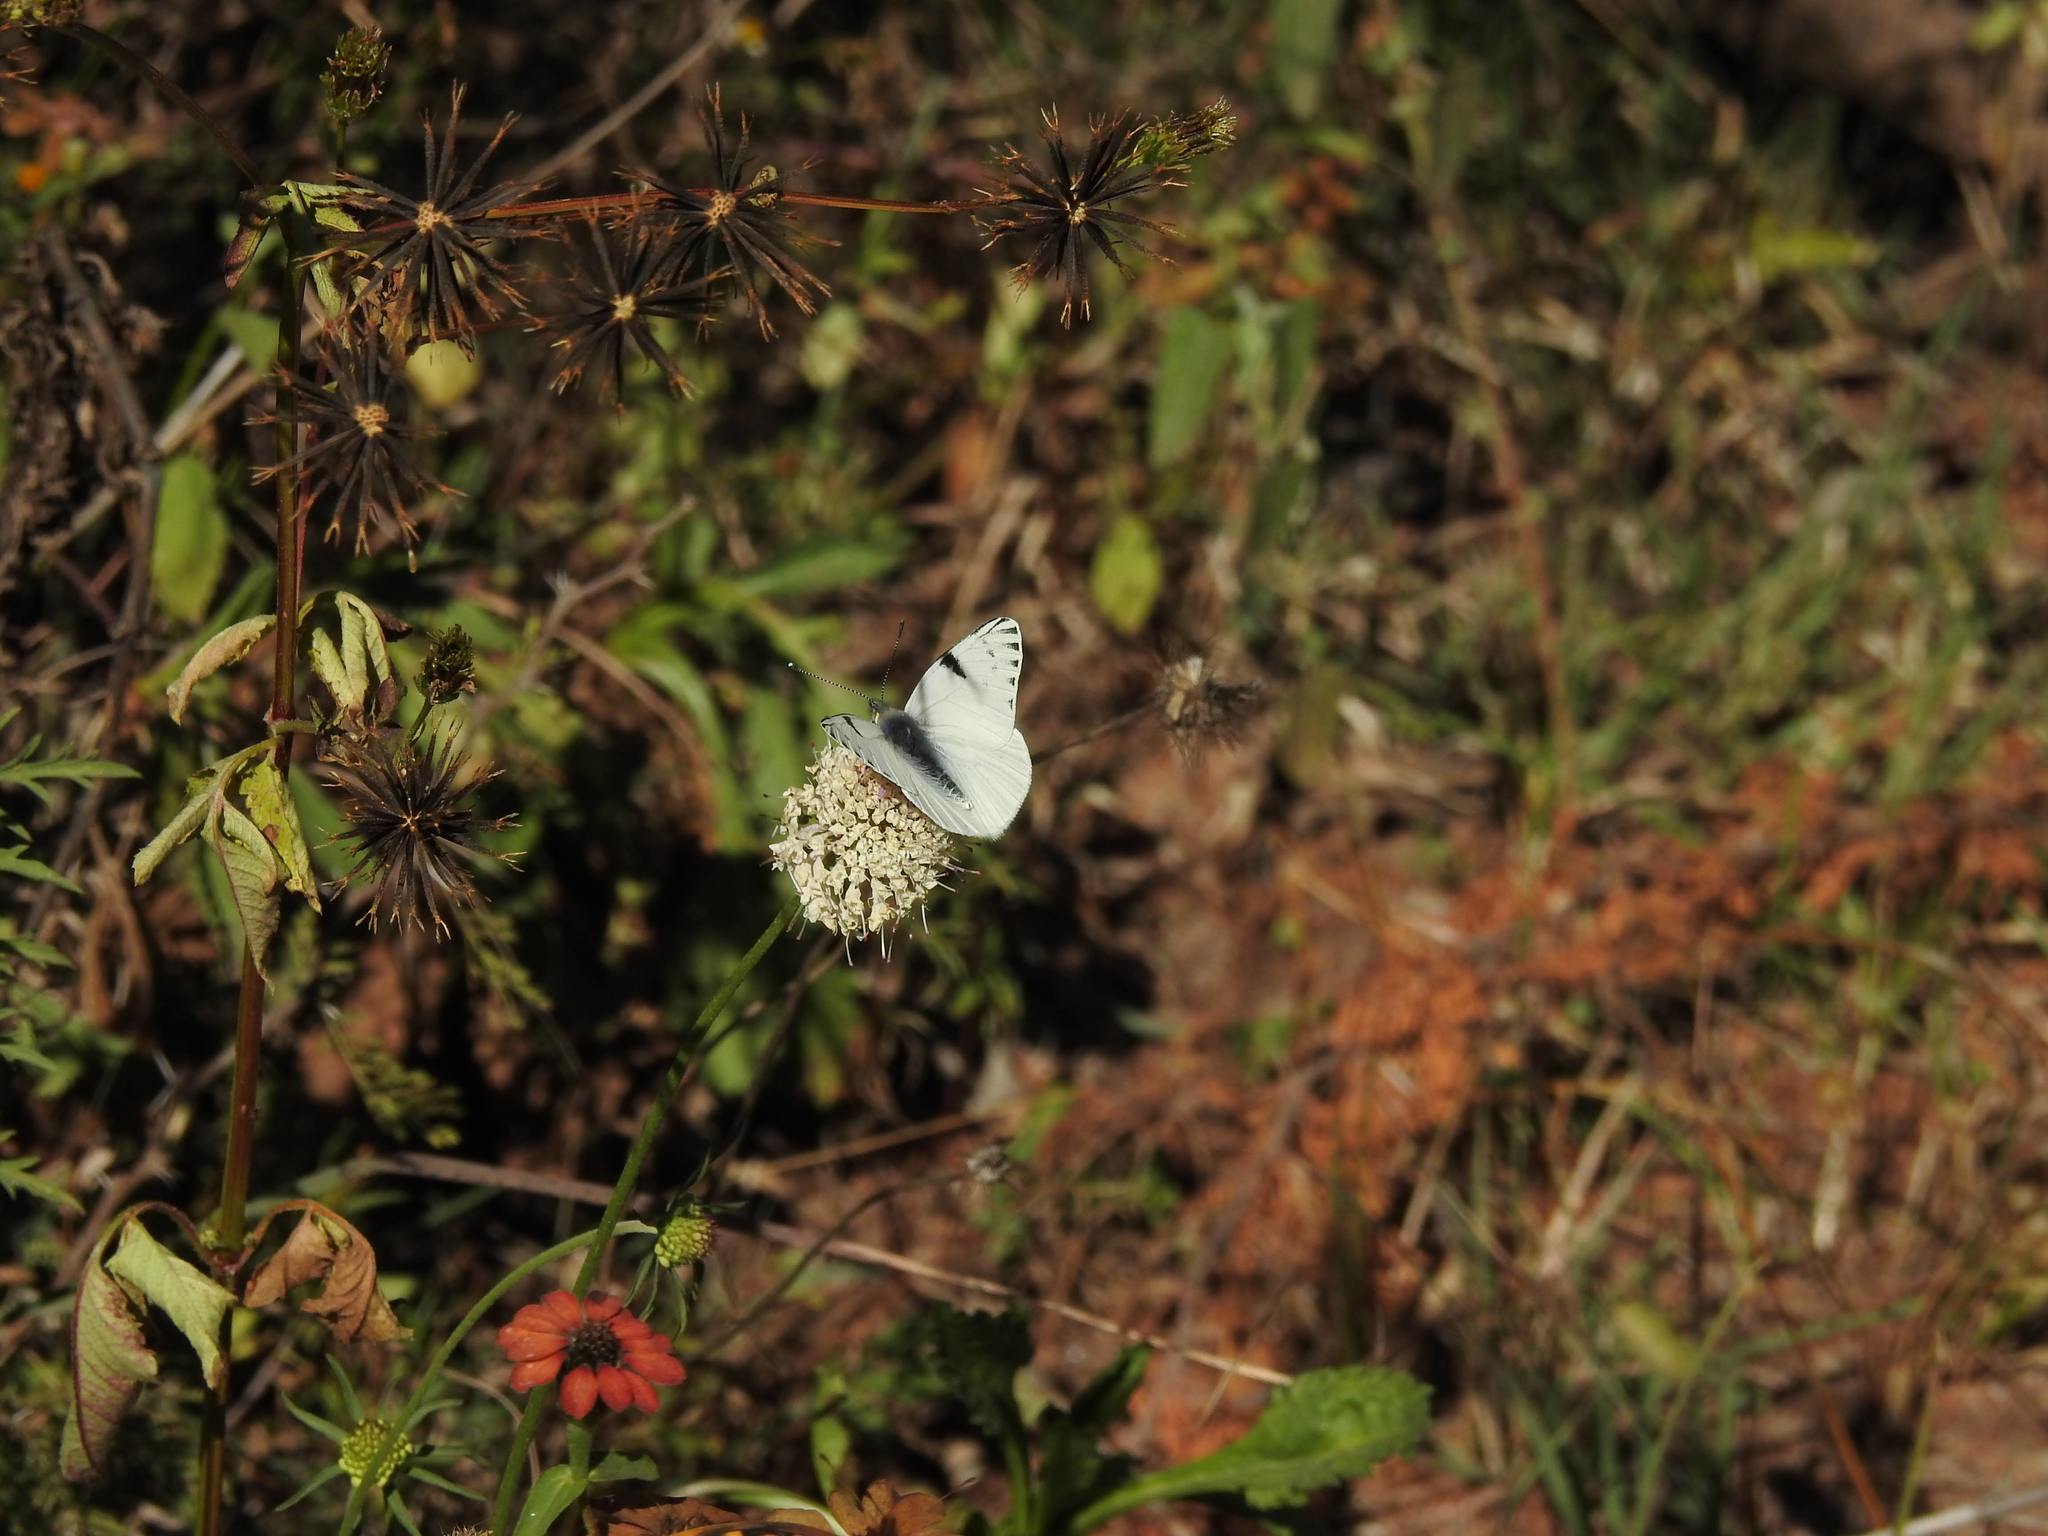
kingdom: Animalia
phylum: Arthropoda
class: Insecta
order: Lepidoptera
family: Pieridae
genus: Tatochila
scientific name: Tatochila autodice
